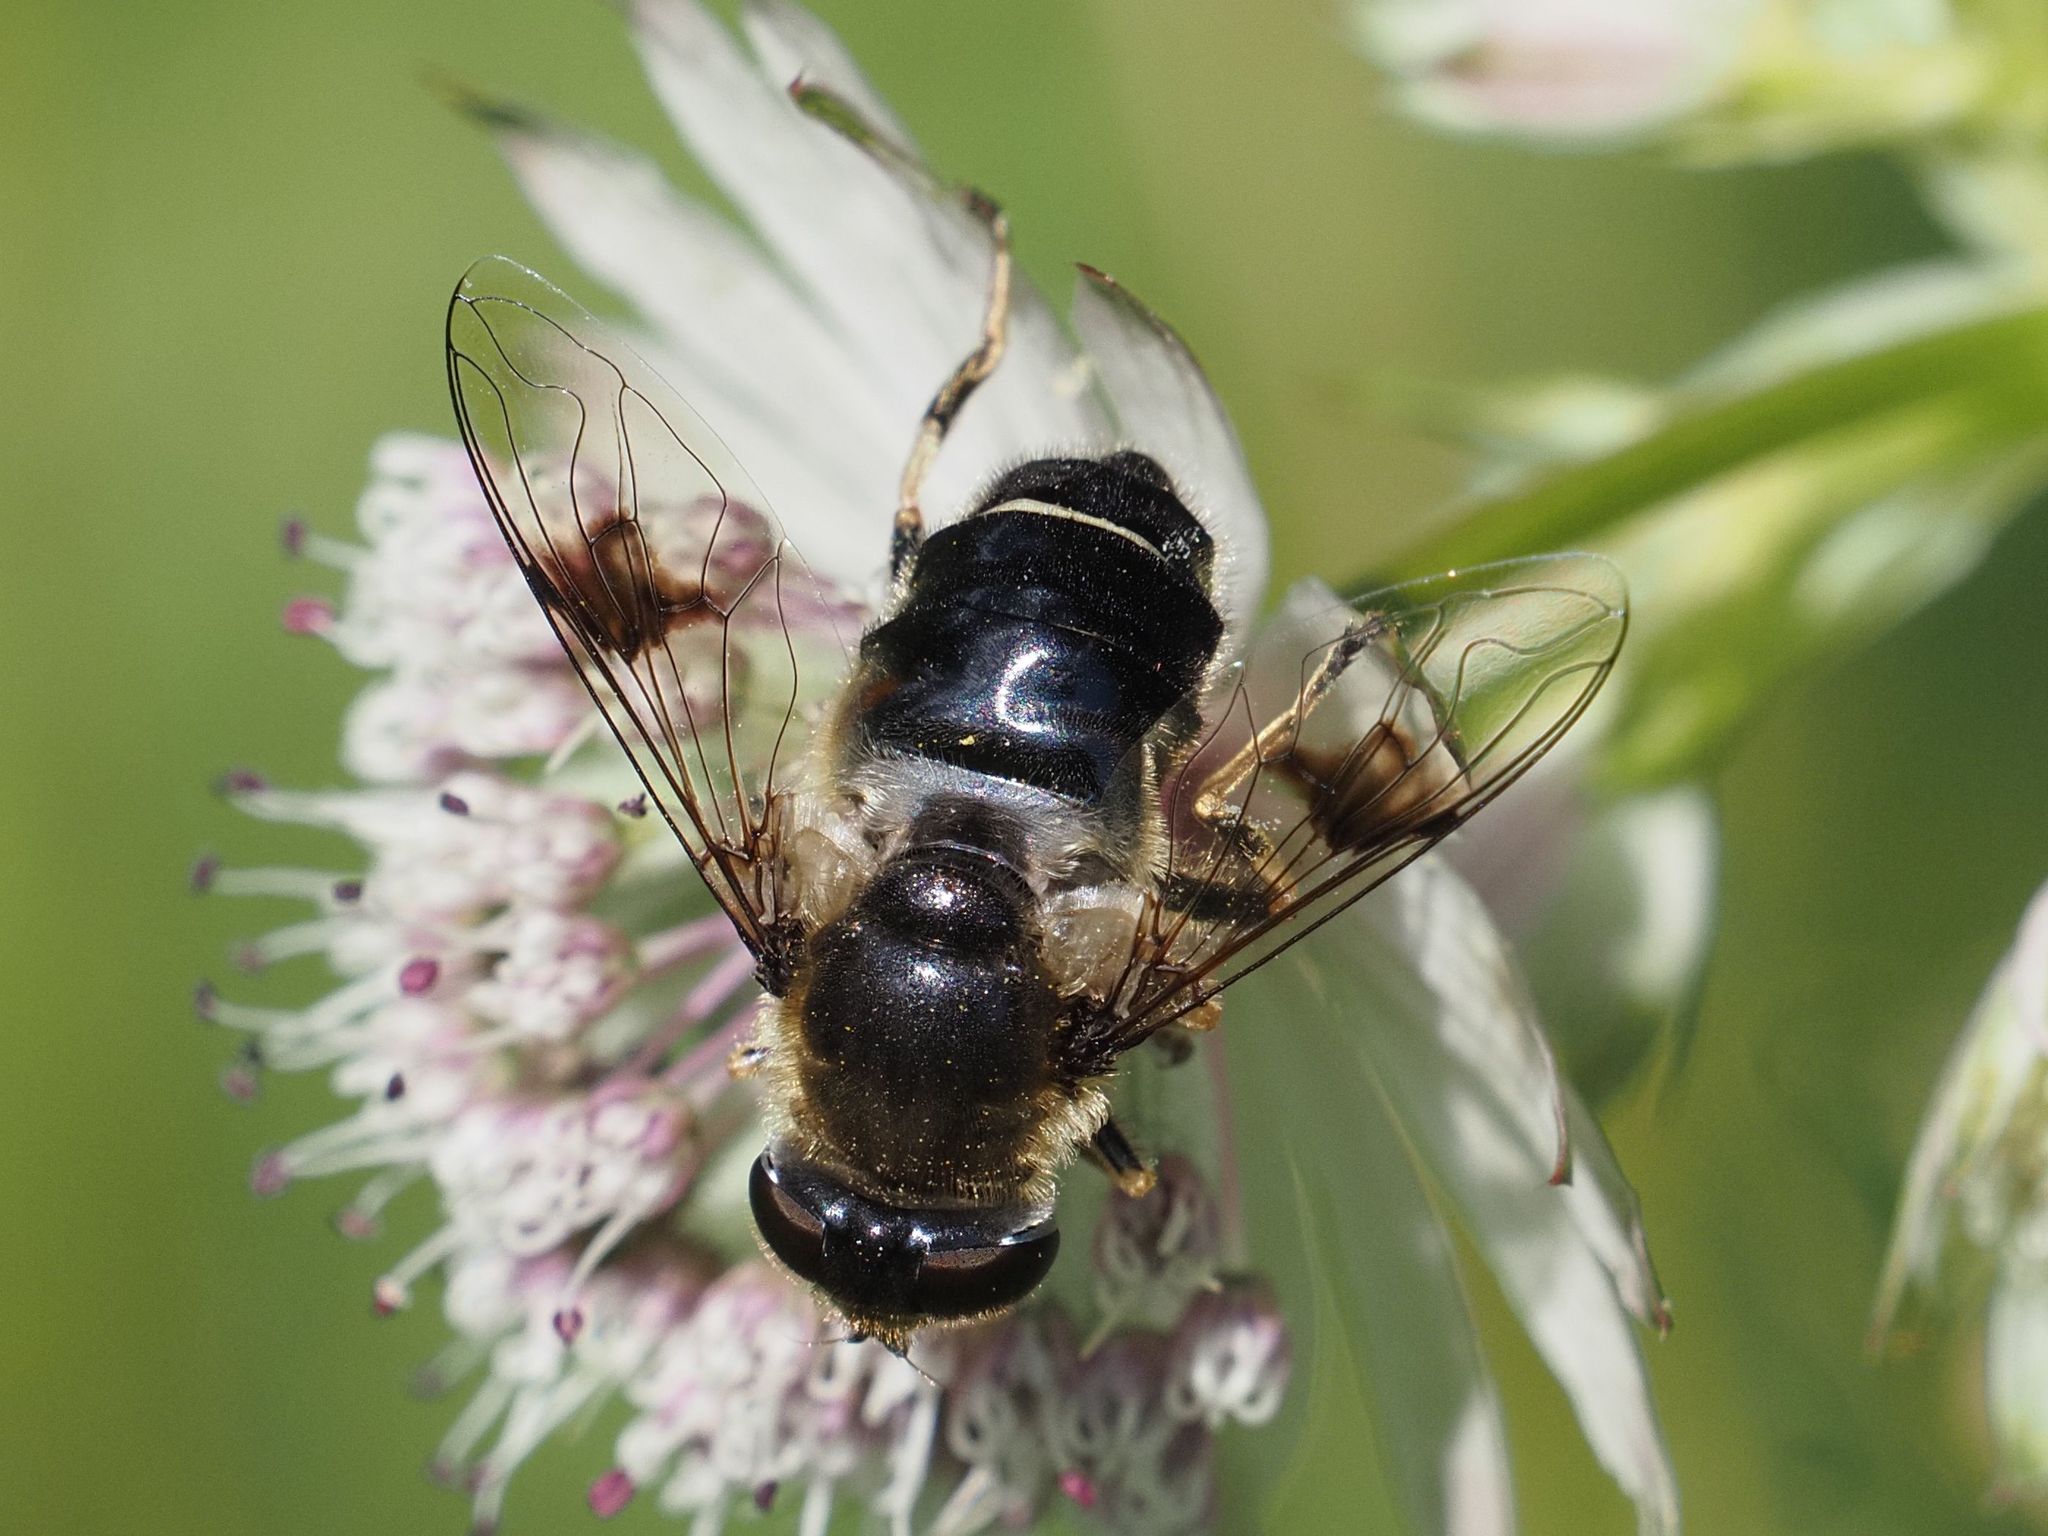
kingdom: Animalia
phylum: Arthropoda
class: Insecta
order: Diptera
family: Syrphidae
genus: Eristalis
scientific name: Eristalis rupium
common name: Hover fly
